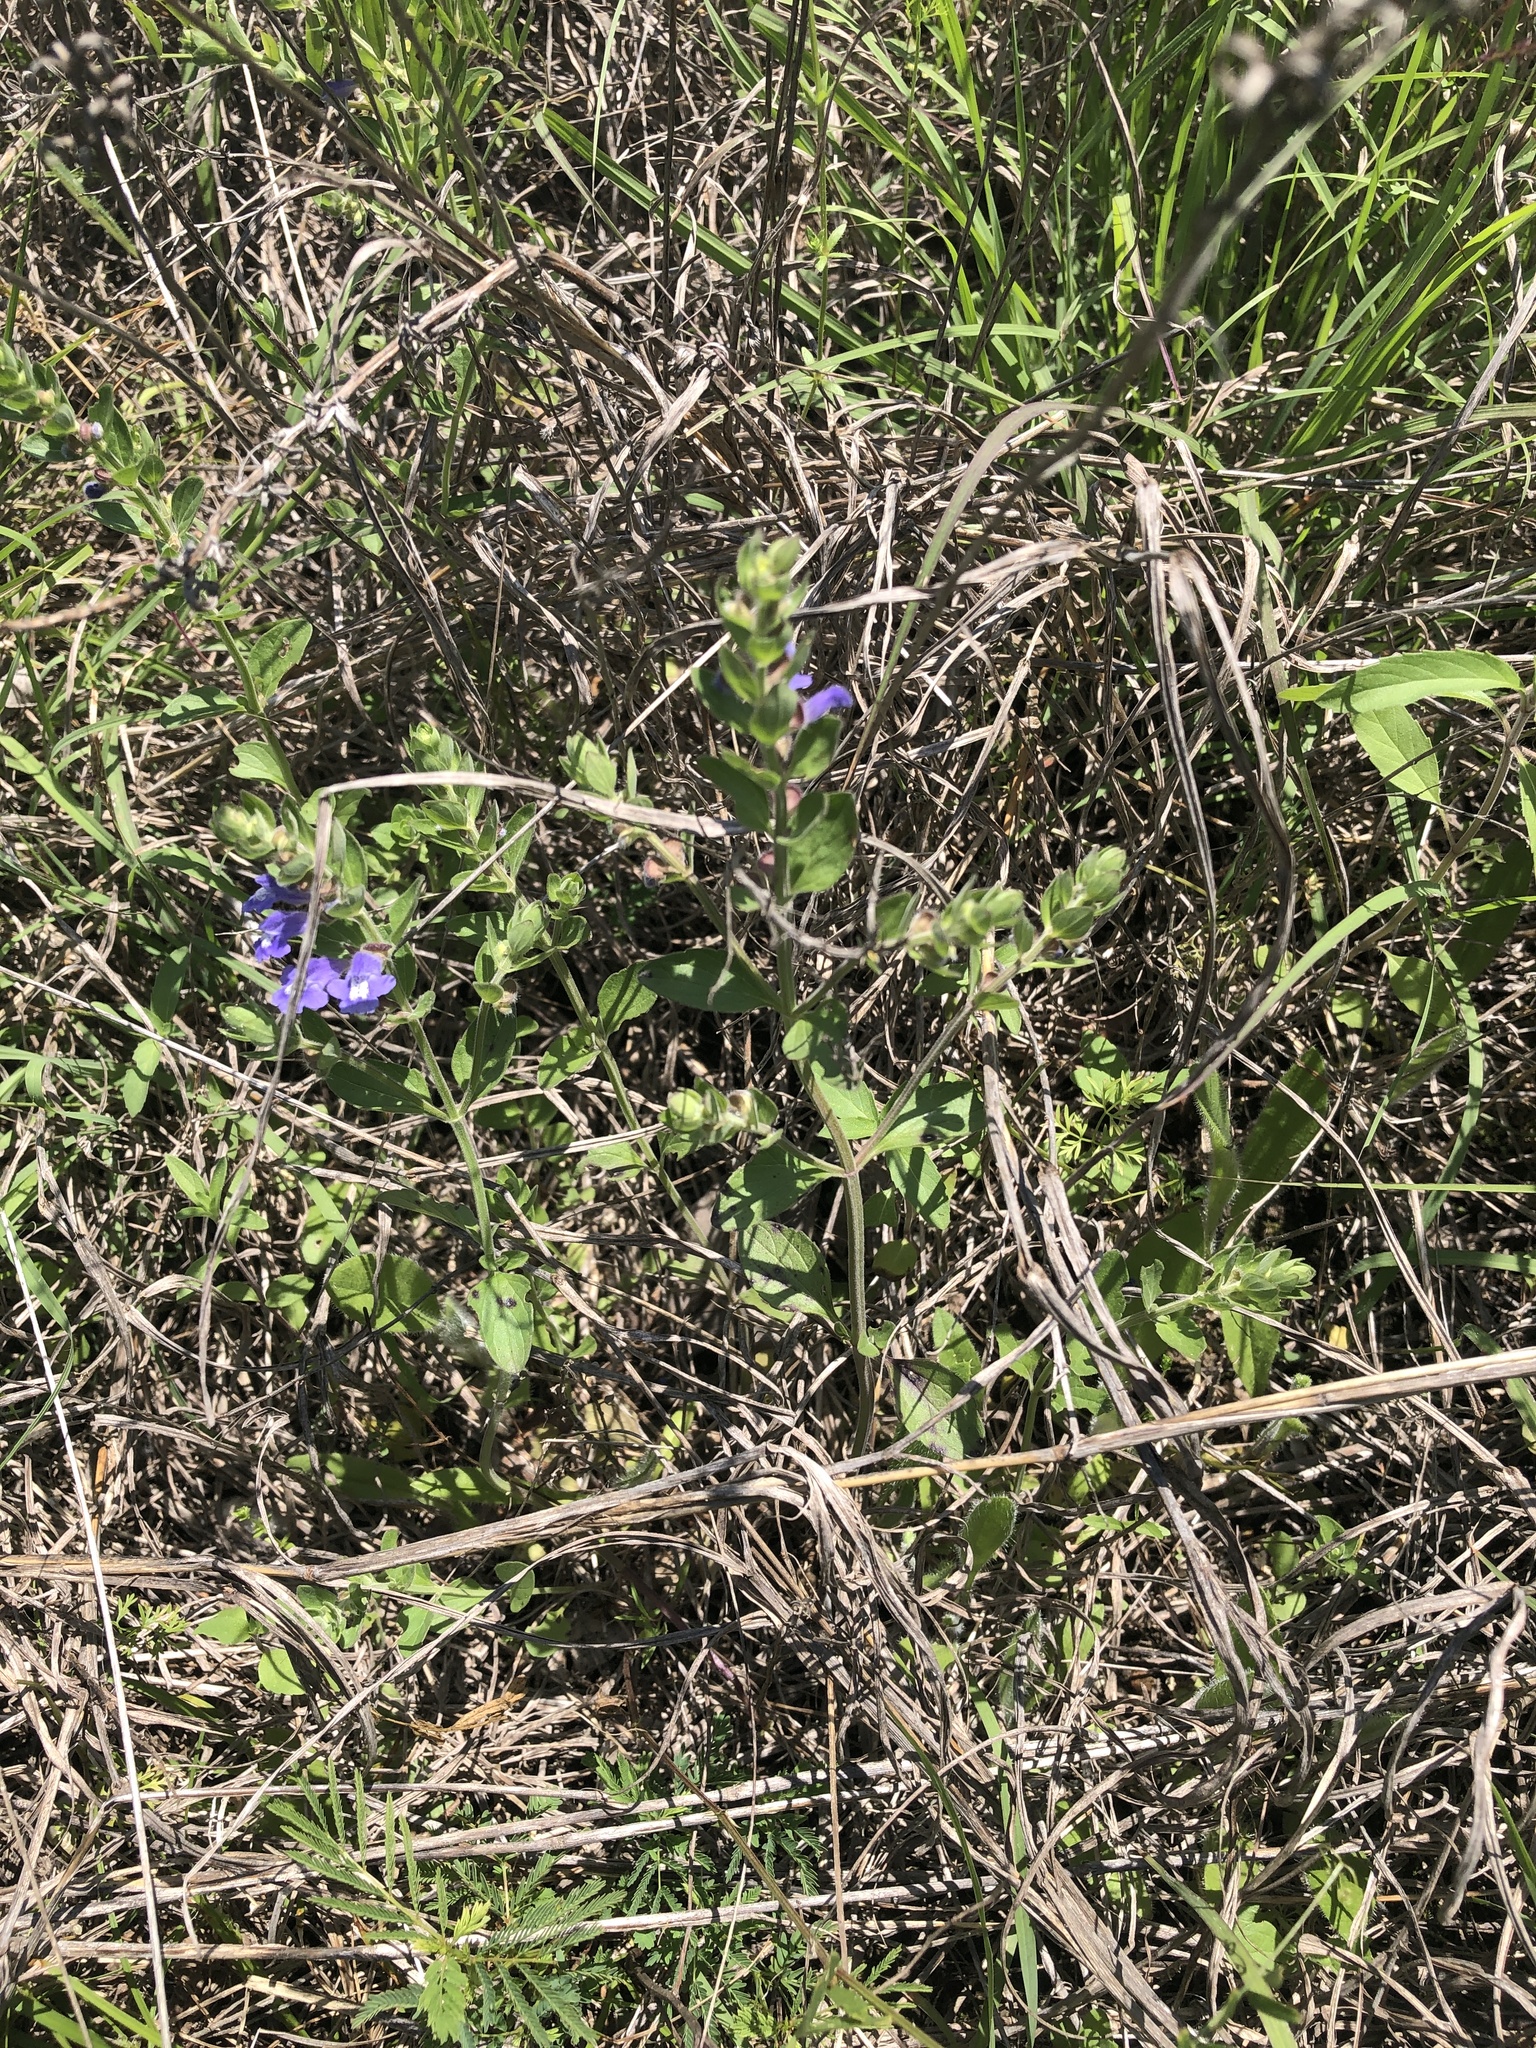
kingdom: Plantae
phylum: Tracheophyta
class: Magnoliopsida
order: Lamiales
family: Lamiaceae
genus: Scutellaria
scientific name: Scutellaria drummondii
